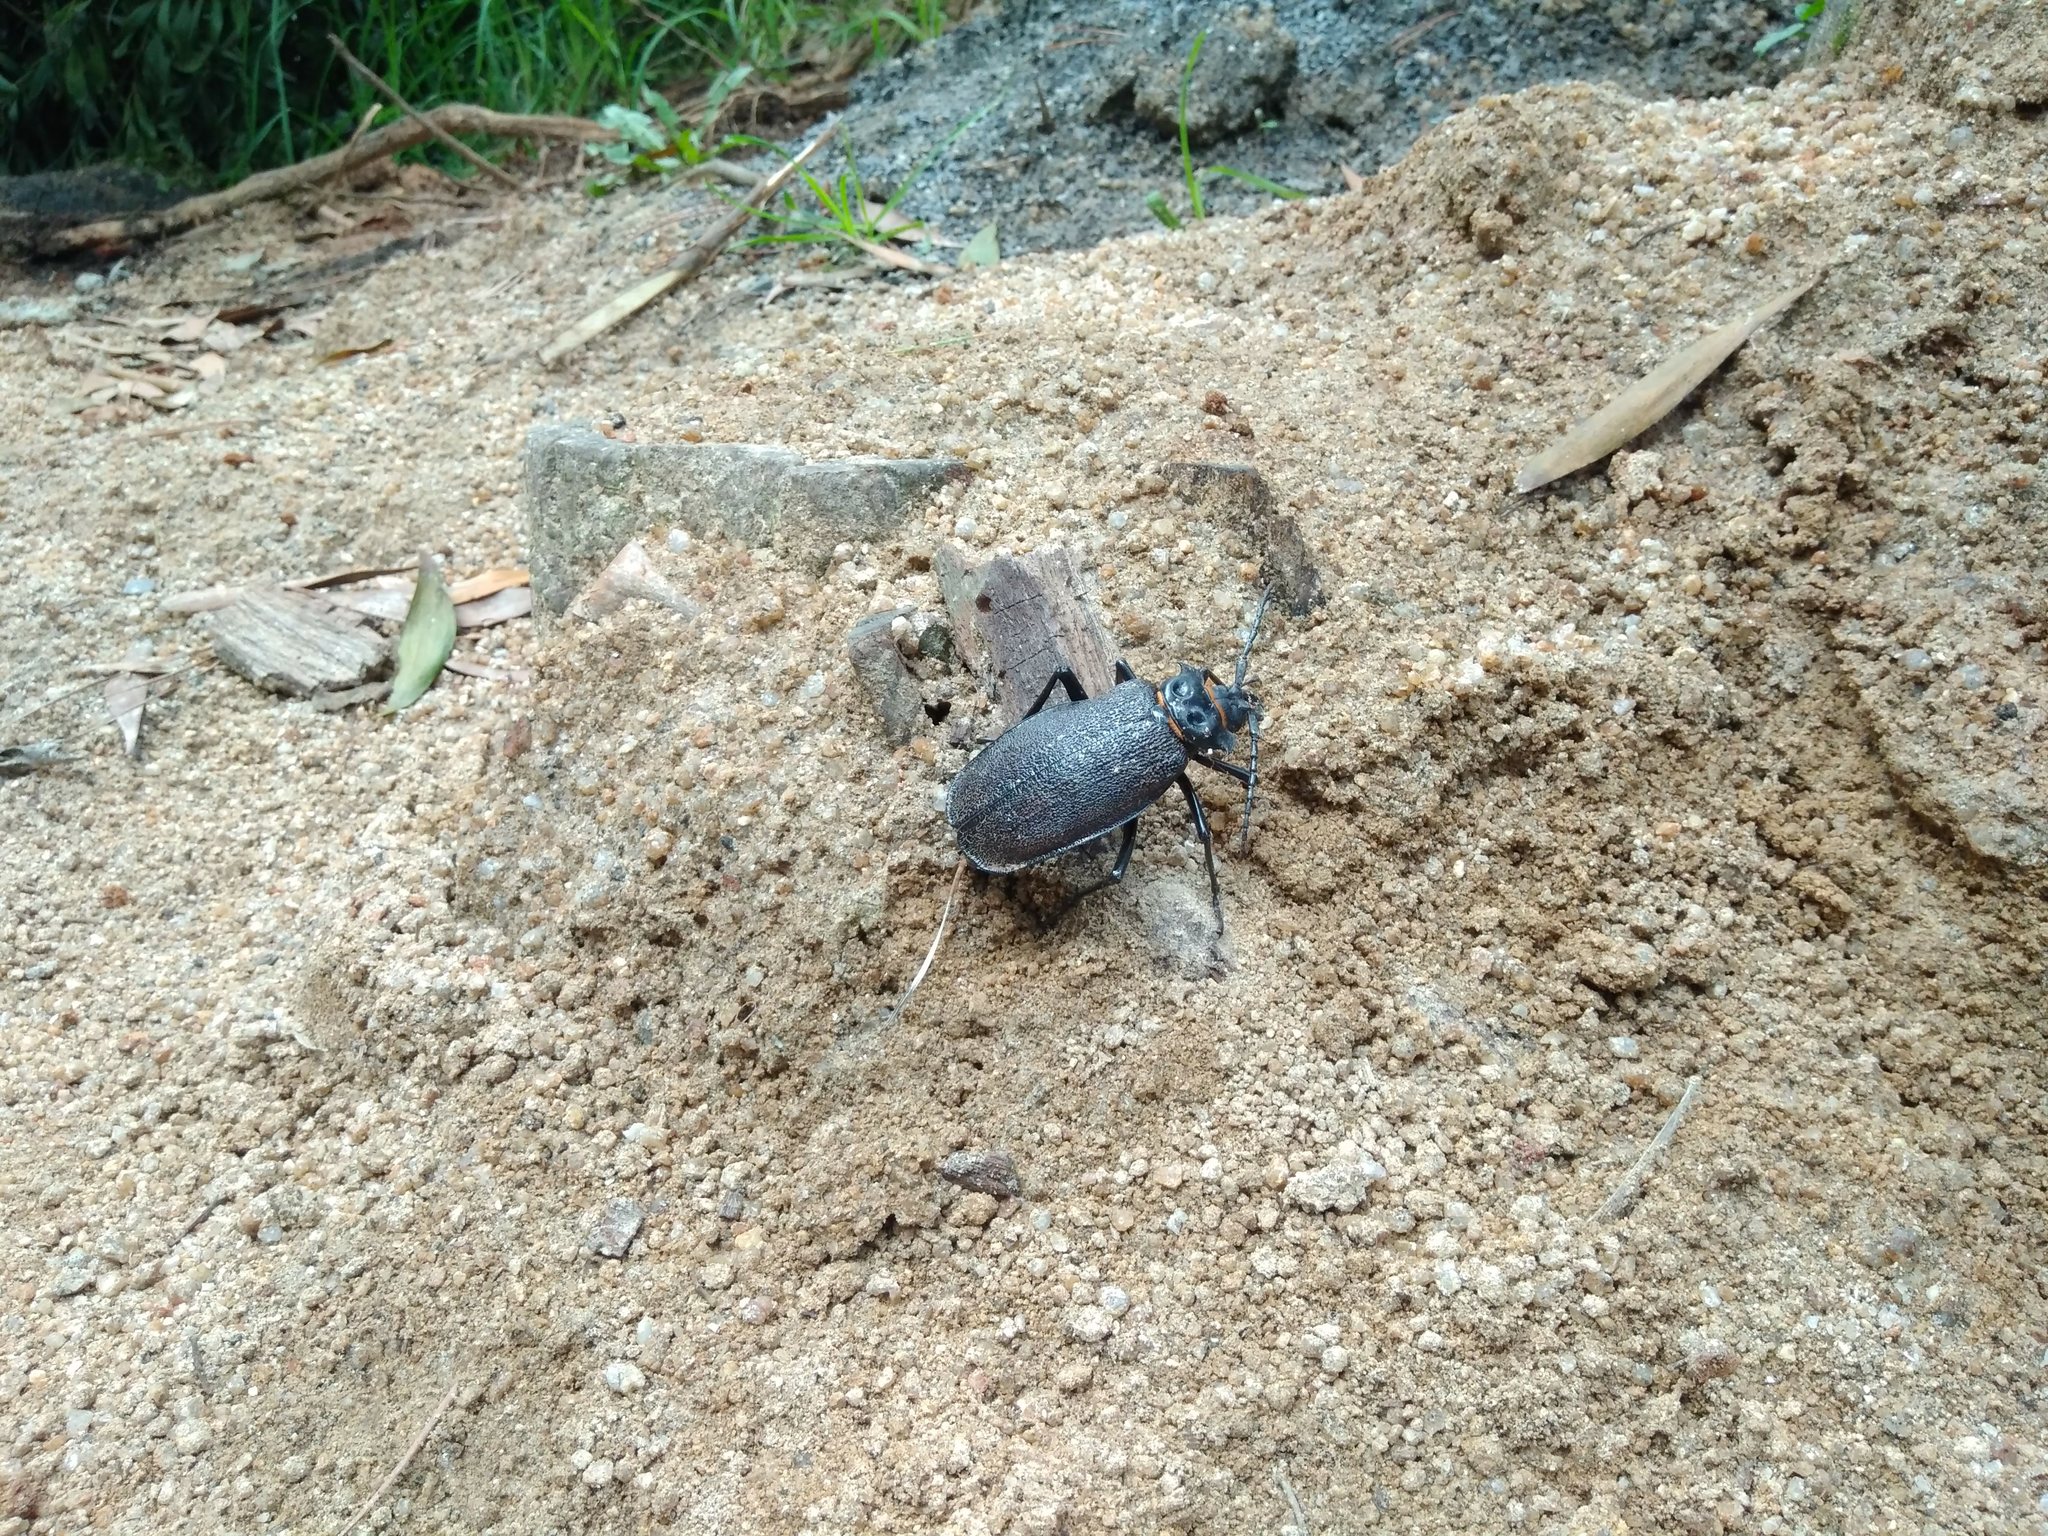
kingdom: Animalia
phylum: Arthropoda
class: Insecta
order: Coleoptera
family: Cerambycidae
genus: Acanthinodera
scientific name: Acanthinodera cumingii
